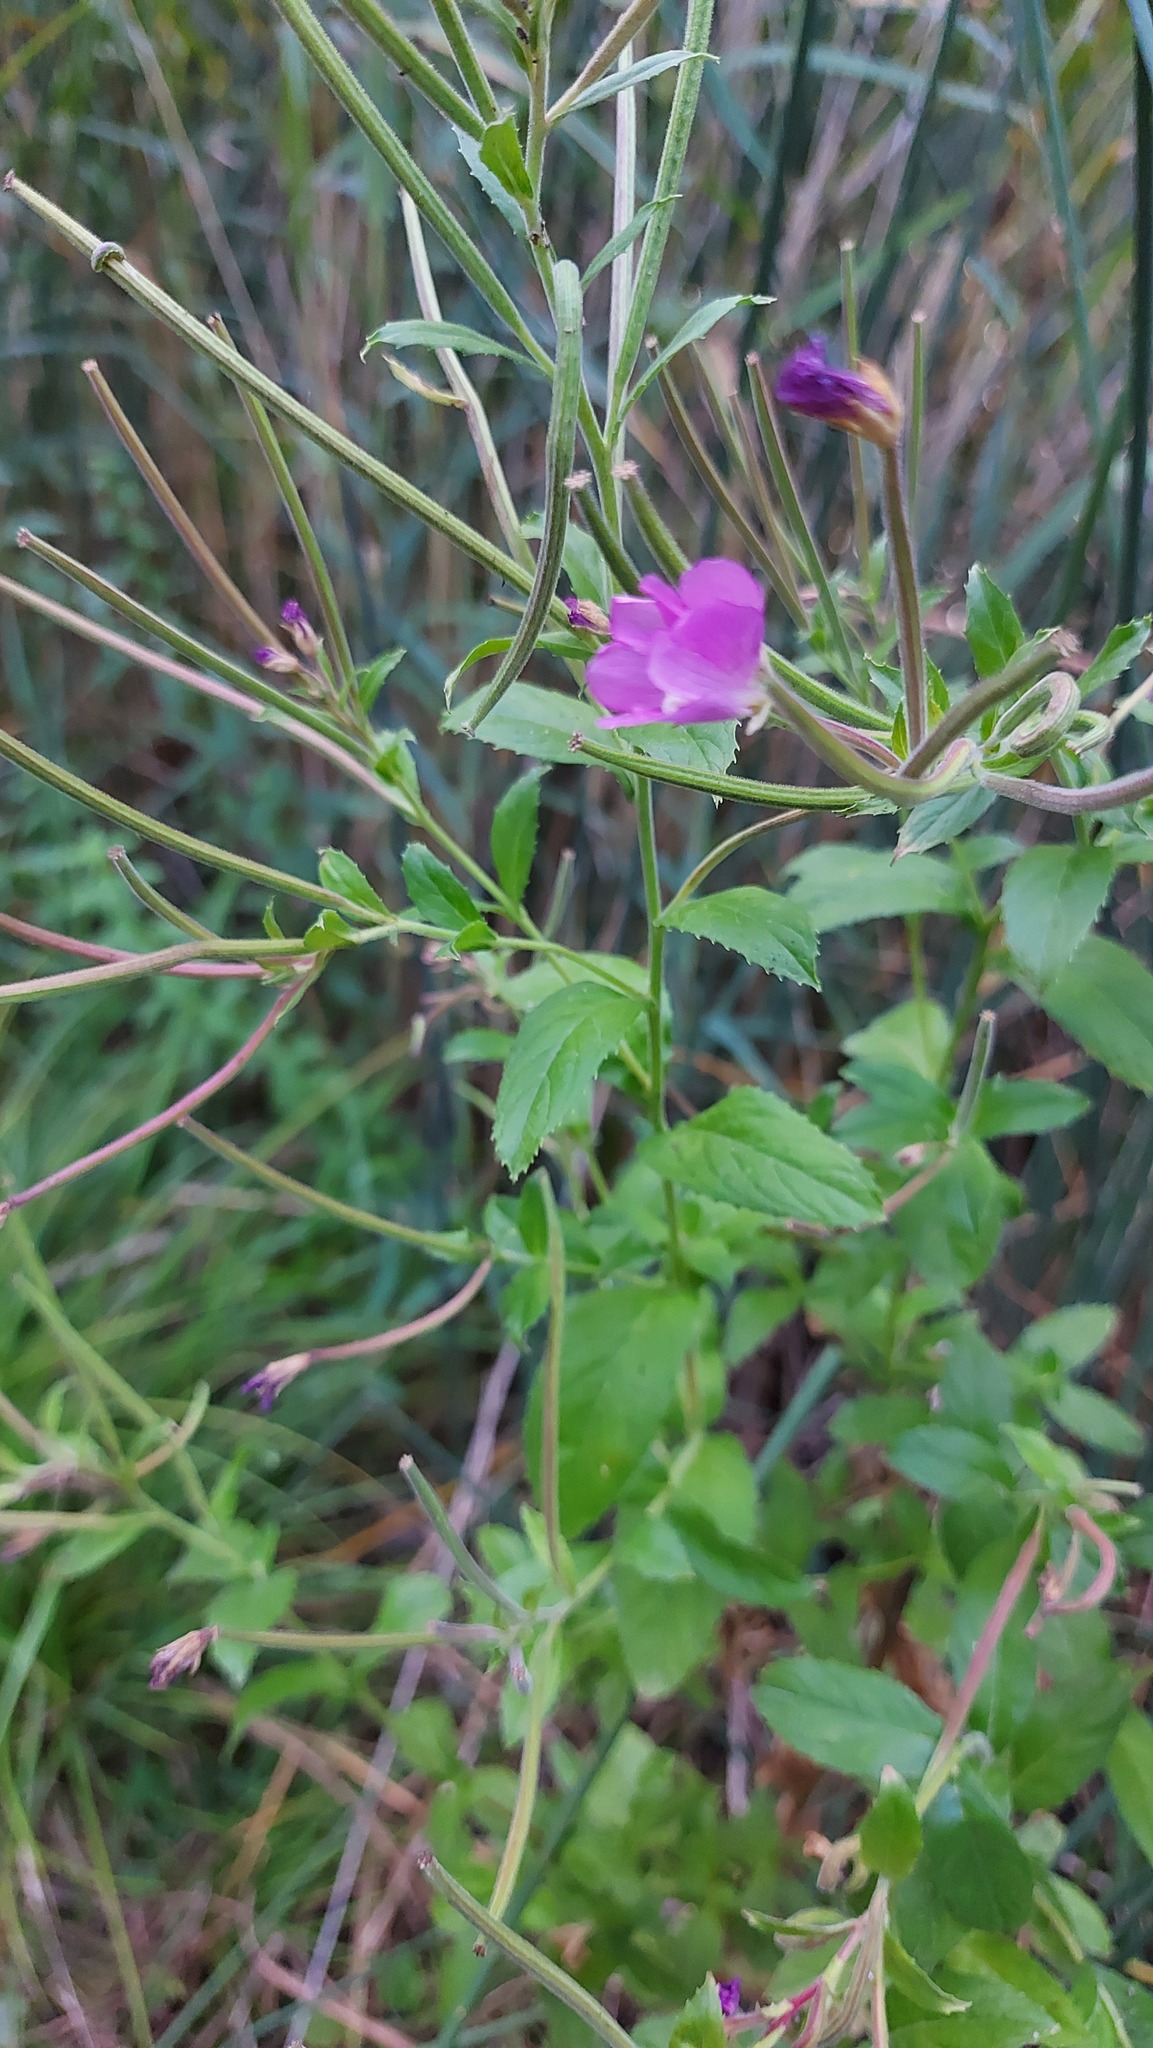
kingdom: Plantae
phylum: Tracheophyta
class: Magnoliopsida
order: Myrtales
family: Onagraceae
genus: Epilobium
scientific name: Epilobium hirsutum
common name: Great willowherb
